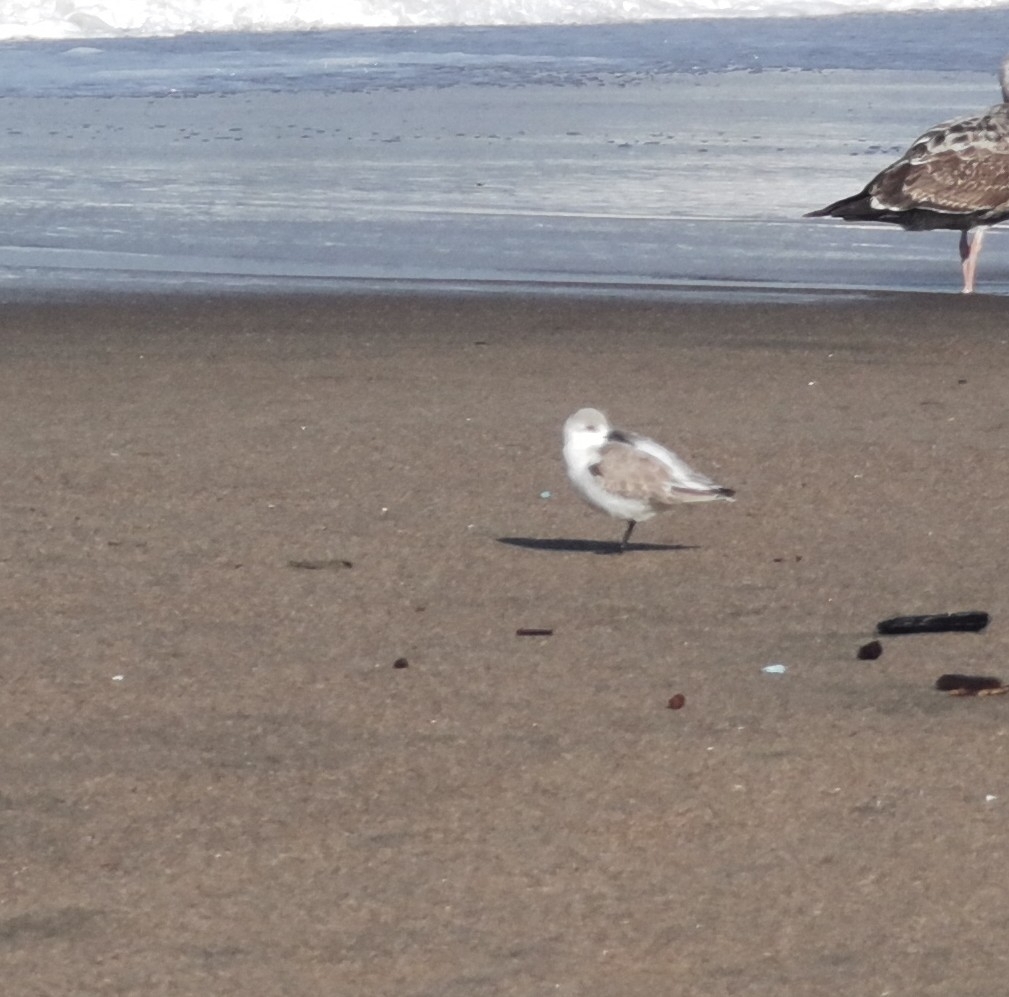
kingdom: Animalia
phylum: Chordata
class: Aves
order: Charadriiformes
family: Scolopacidae
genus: Calidris
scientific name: Calidris alba
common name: Sanderling
